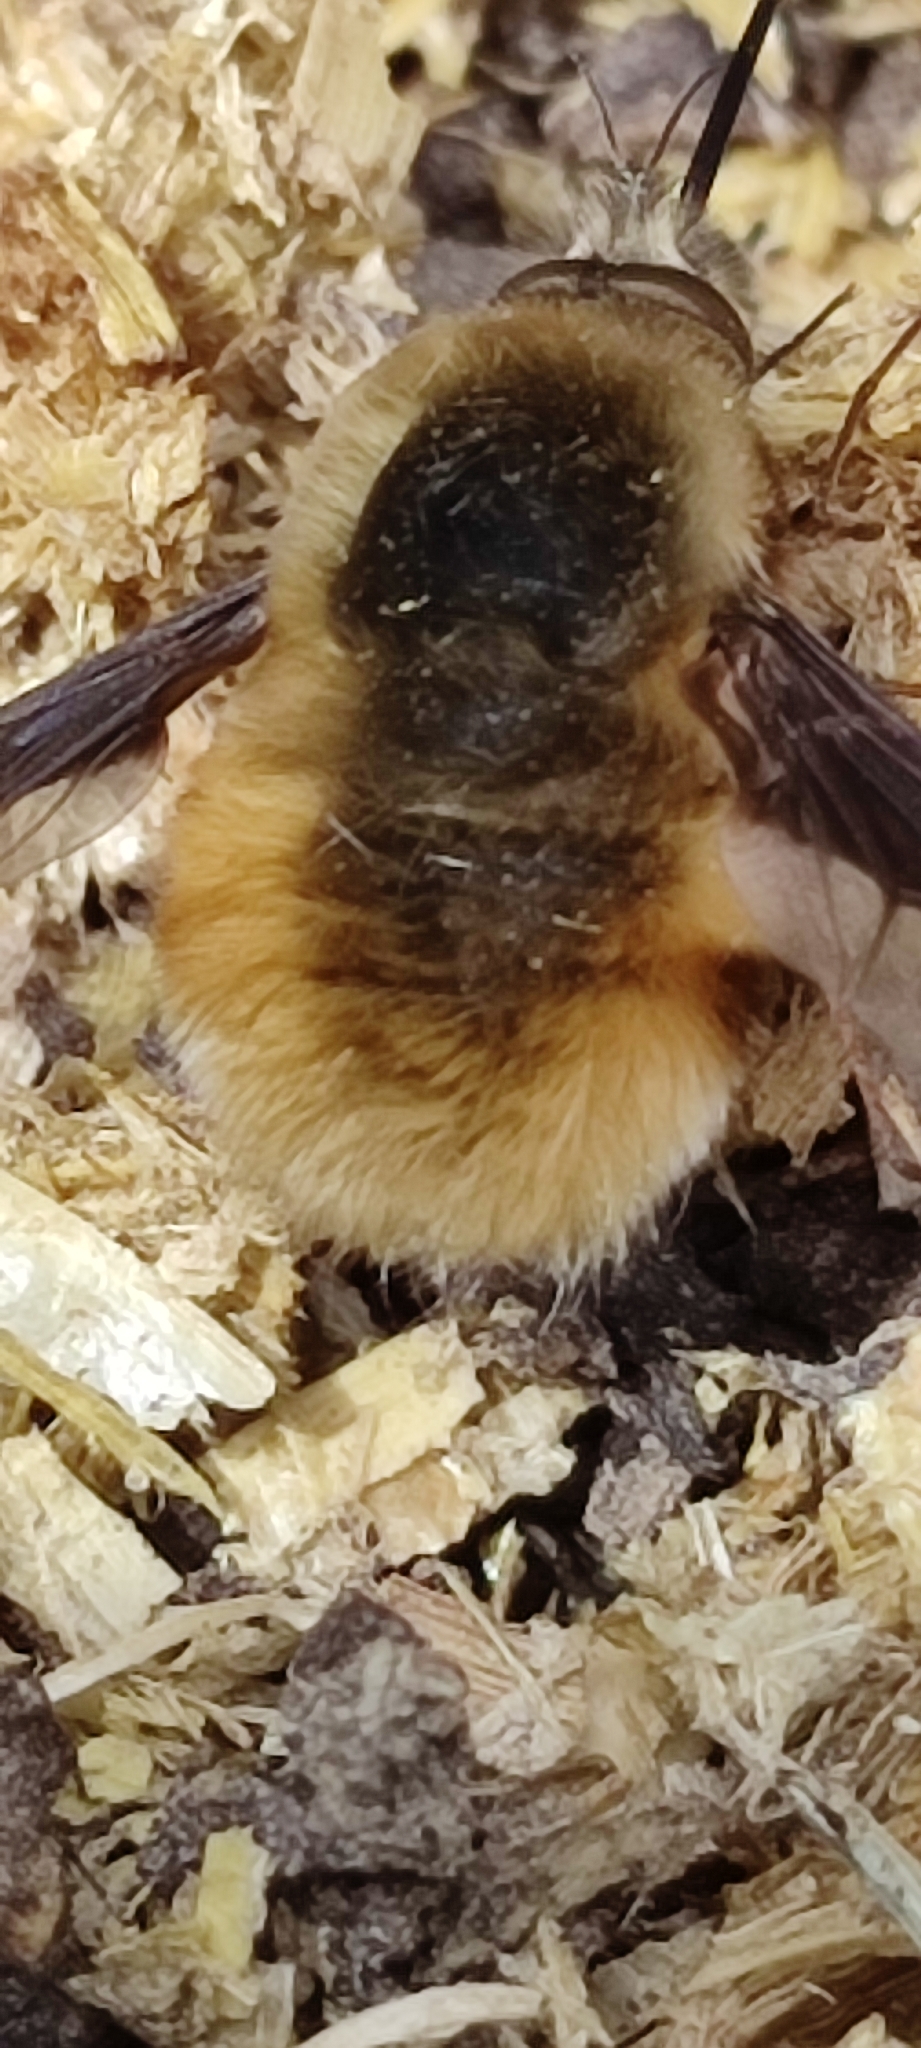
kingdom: Animalia
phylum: Arthropoda
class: Insecta
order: Diptera
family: Bombyliidae
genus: Bombylius
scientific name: Bombylius major
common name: Bee fly
